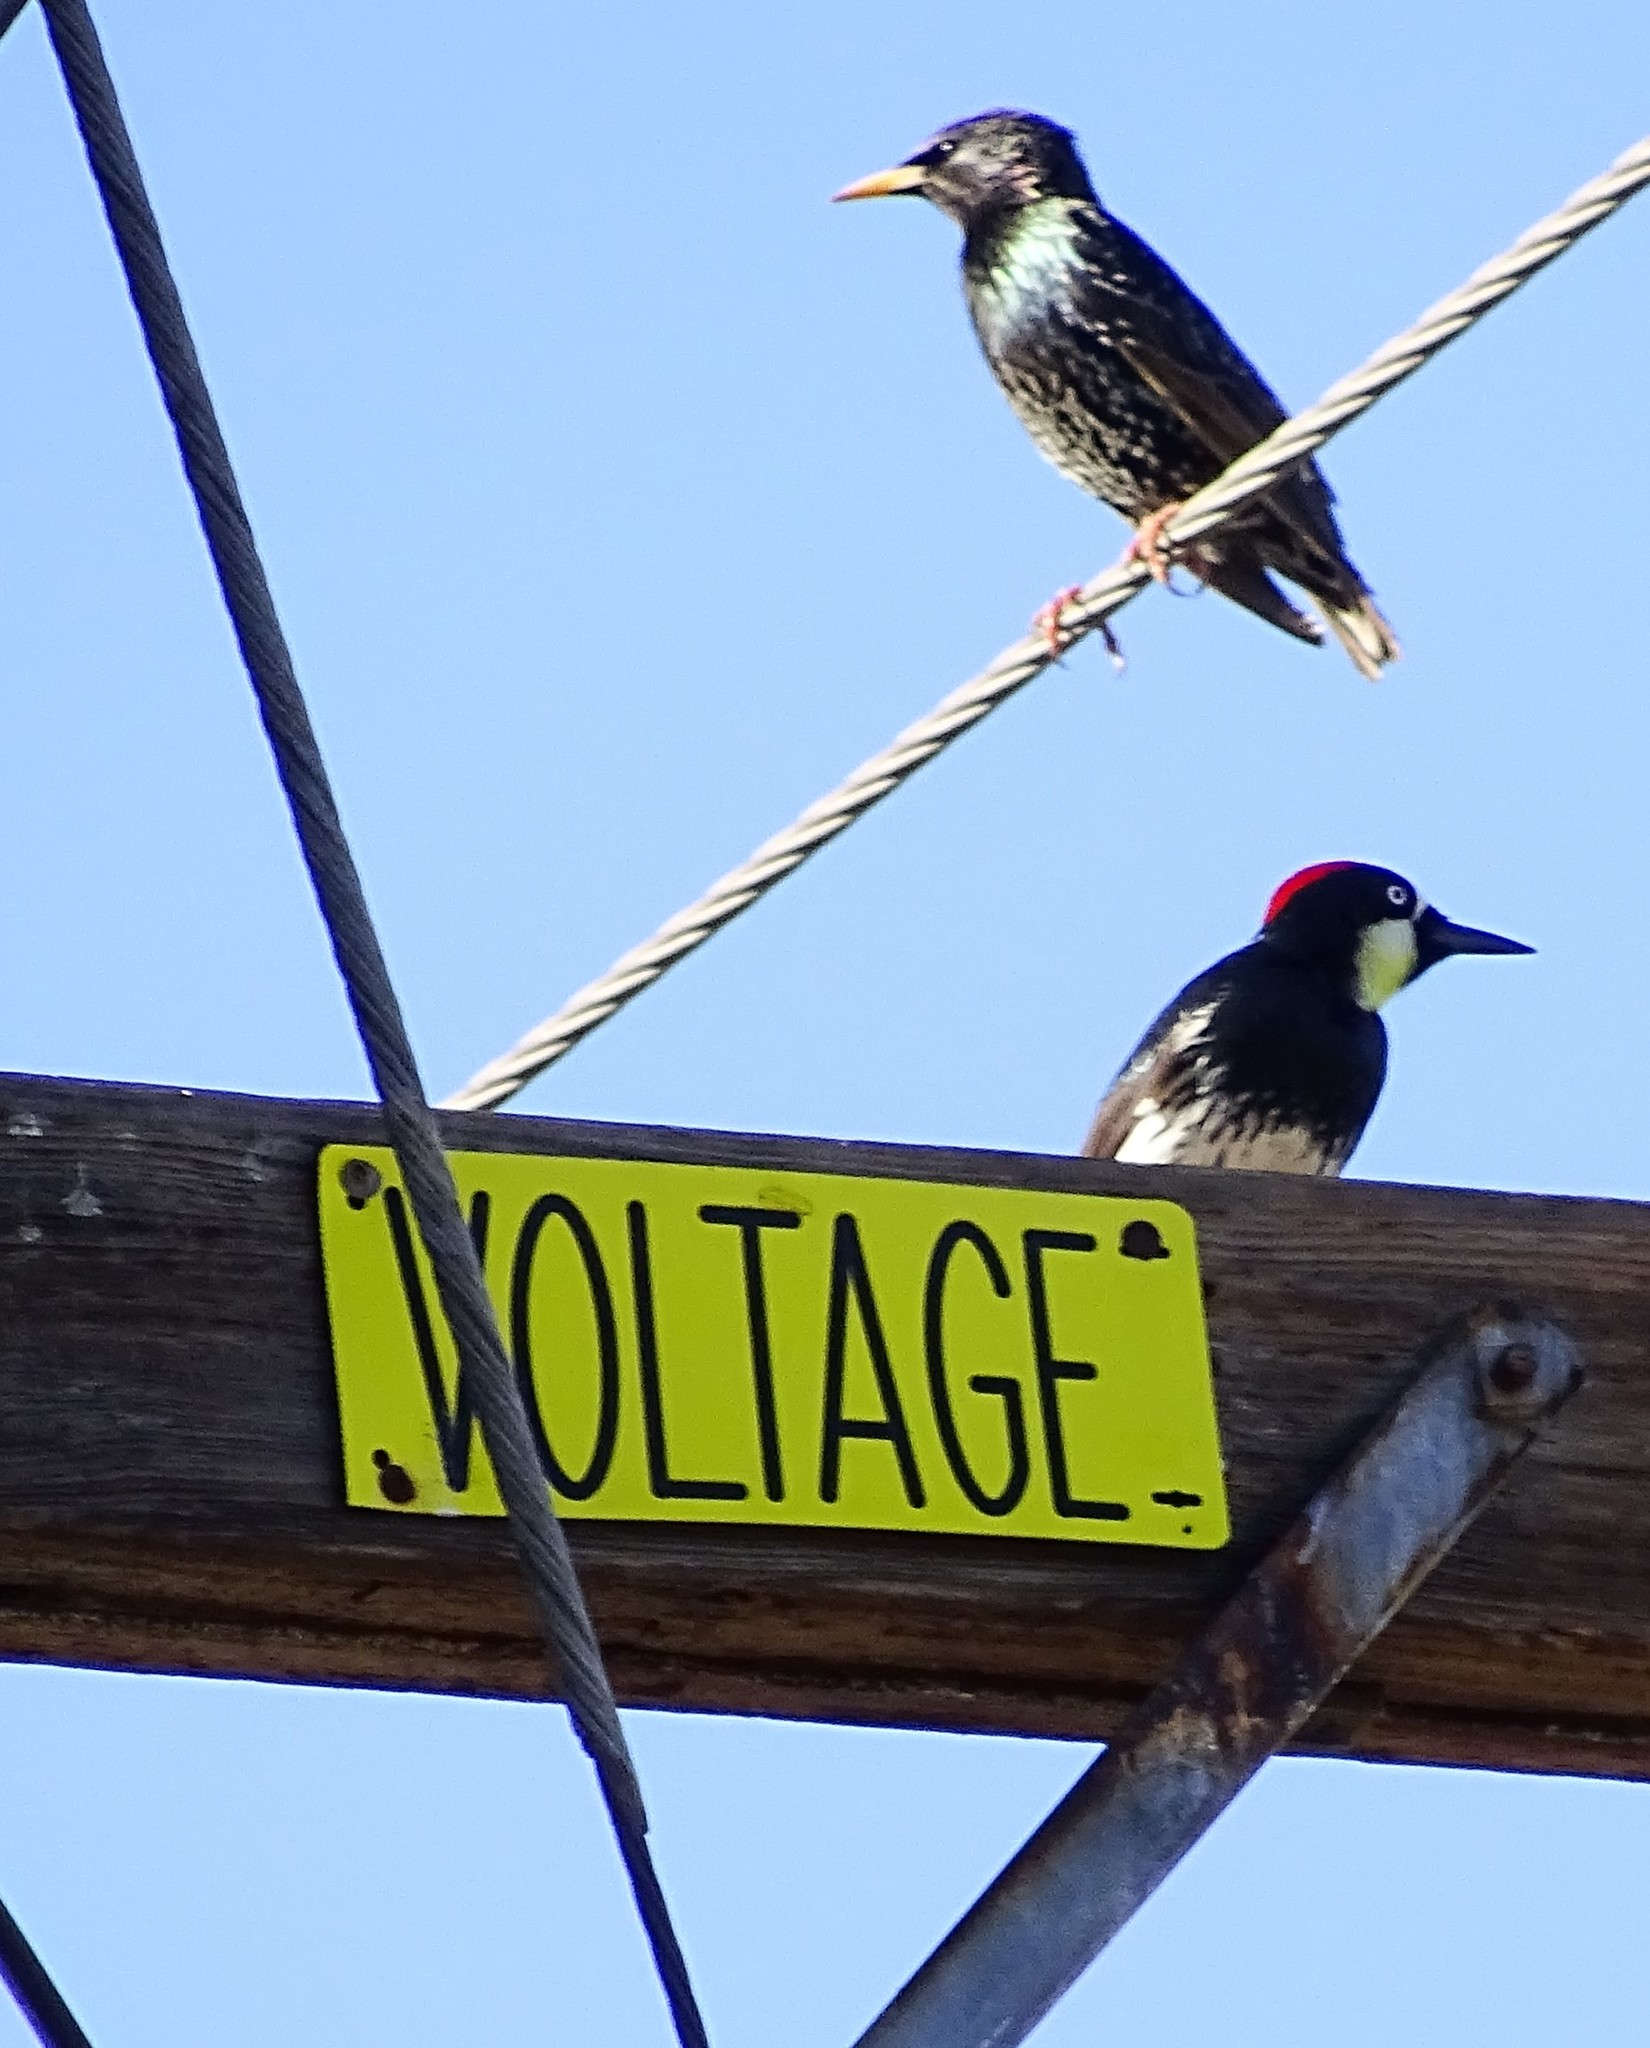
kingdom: Animalia
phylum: Chordata
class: Aves
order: Piciformes
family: Picidae
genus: Melanerpes
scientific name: Melanerpes formicivorus
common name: Acorn woodpecker
